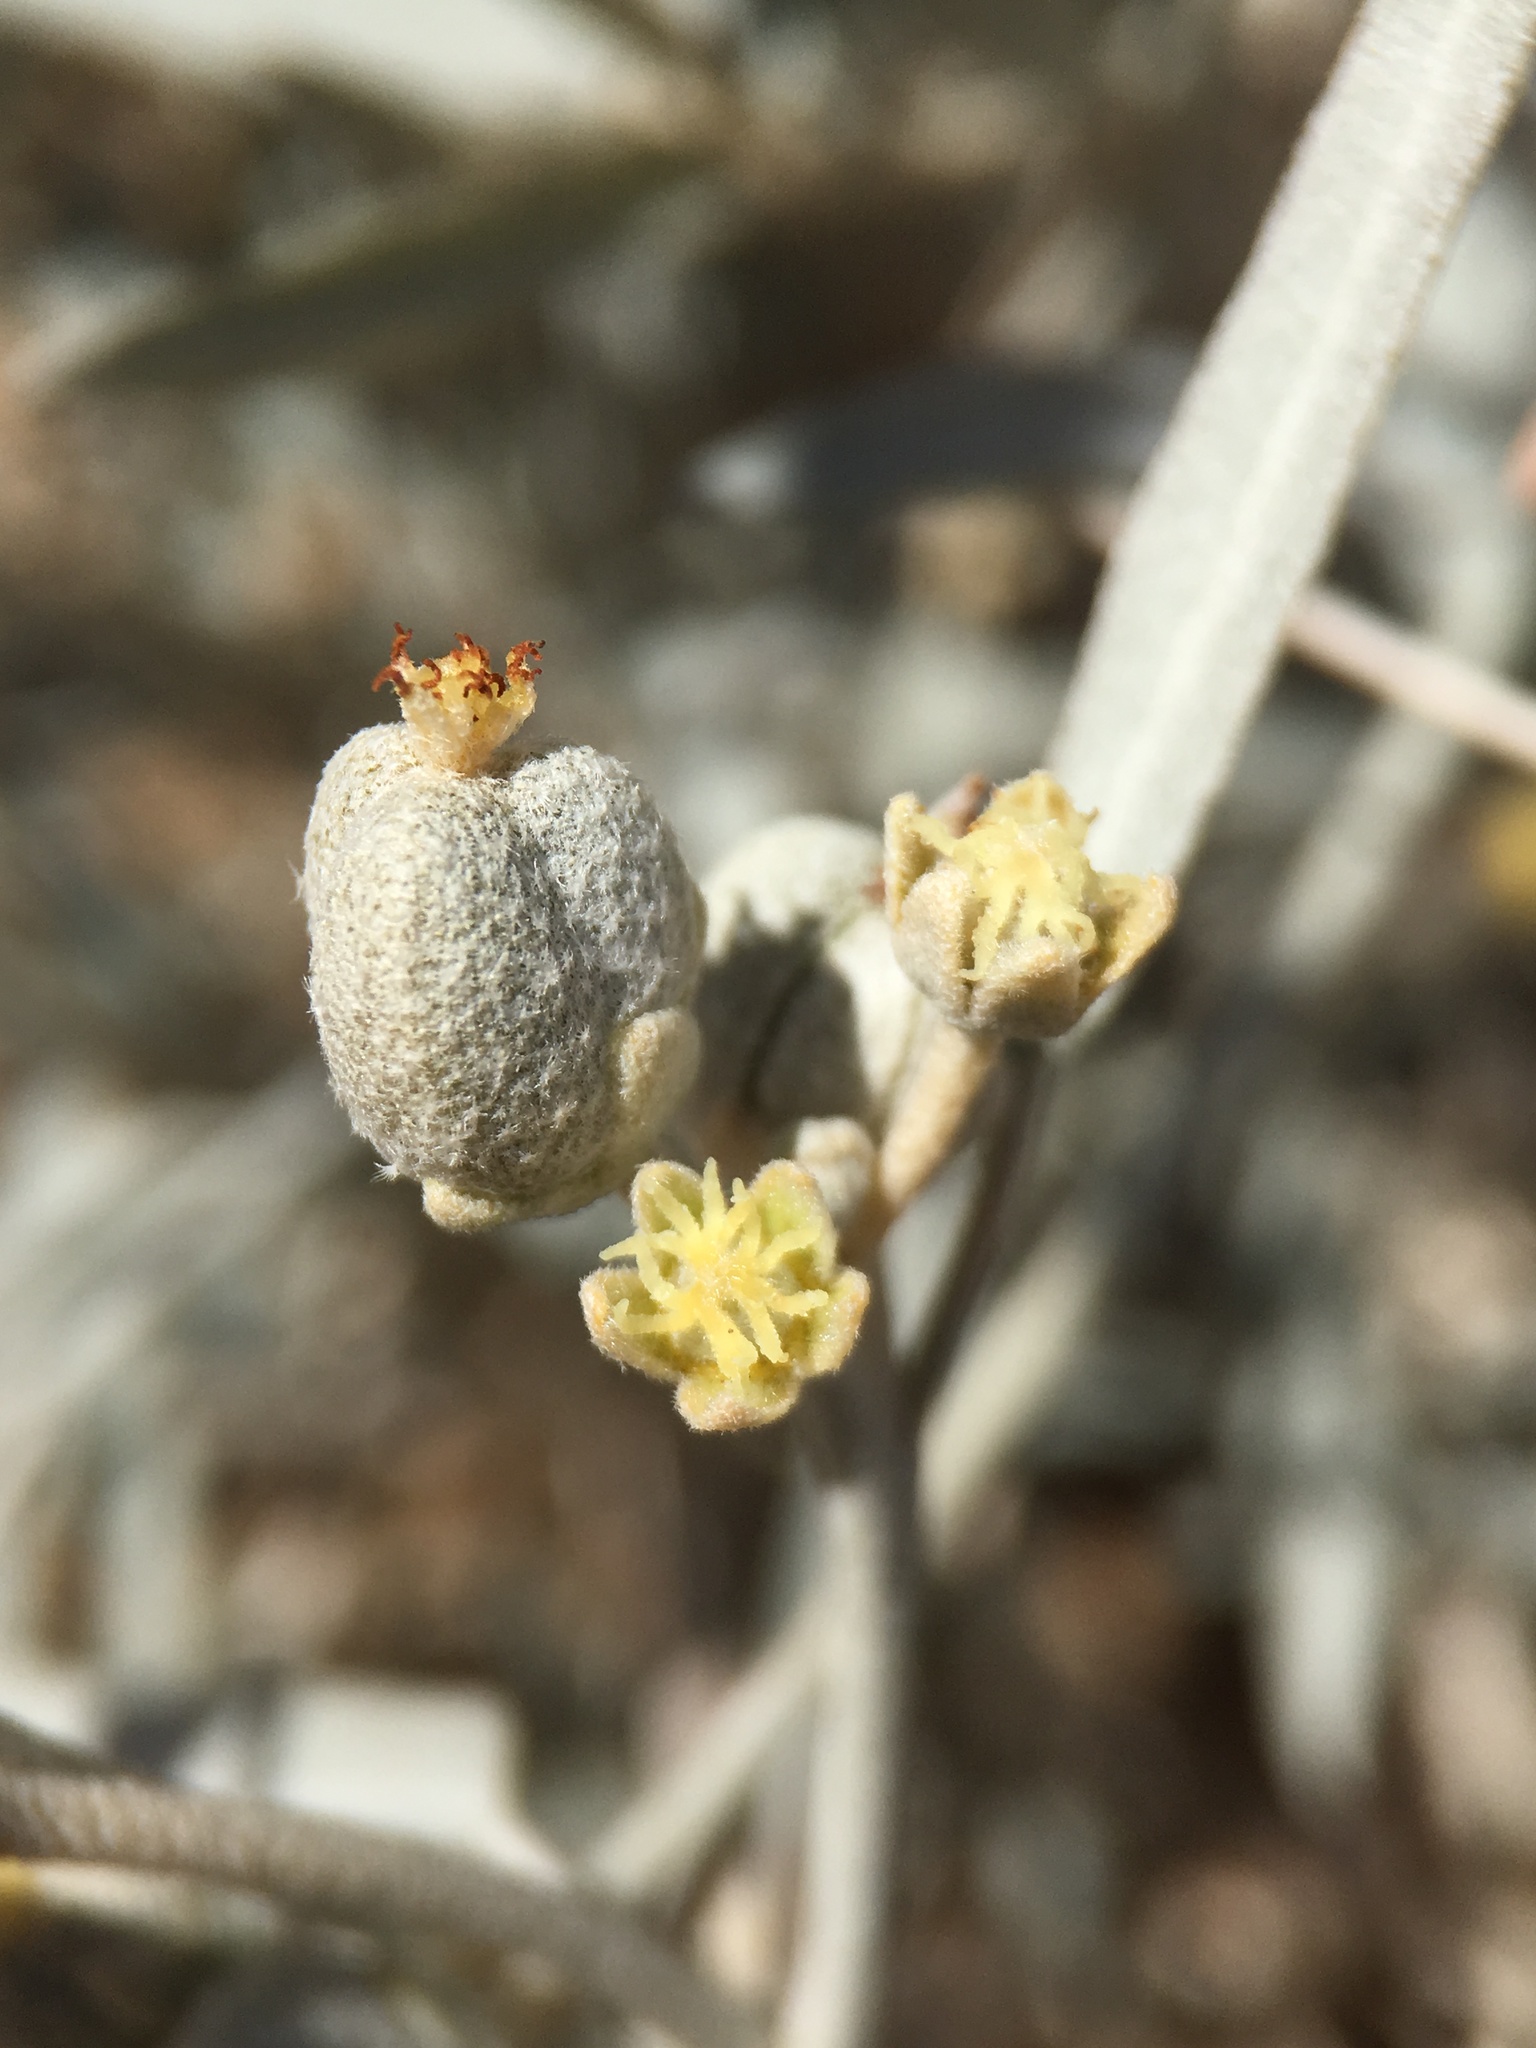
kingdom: Plantae
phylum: Tracheophyta
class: Magnoliopsida
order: Malpighiales
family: Euphorbiaceae
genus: Croton
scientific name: Croton wigginsii
